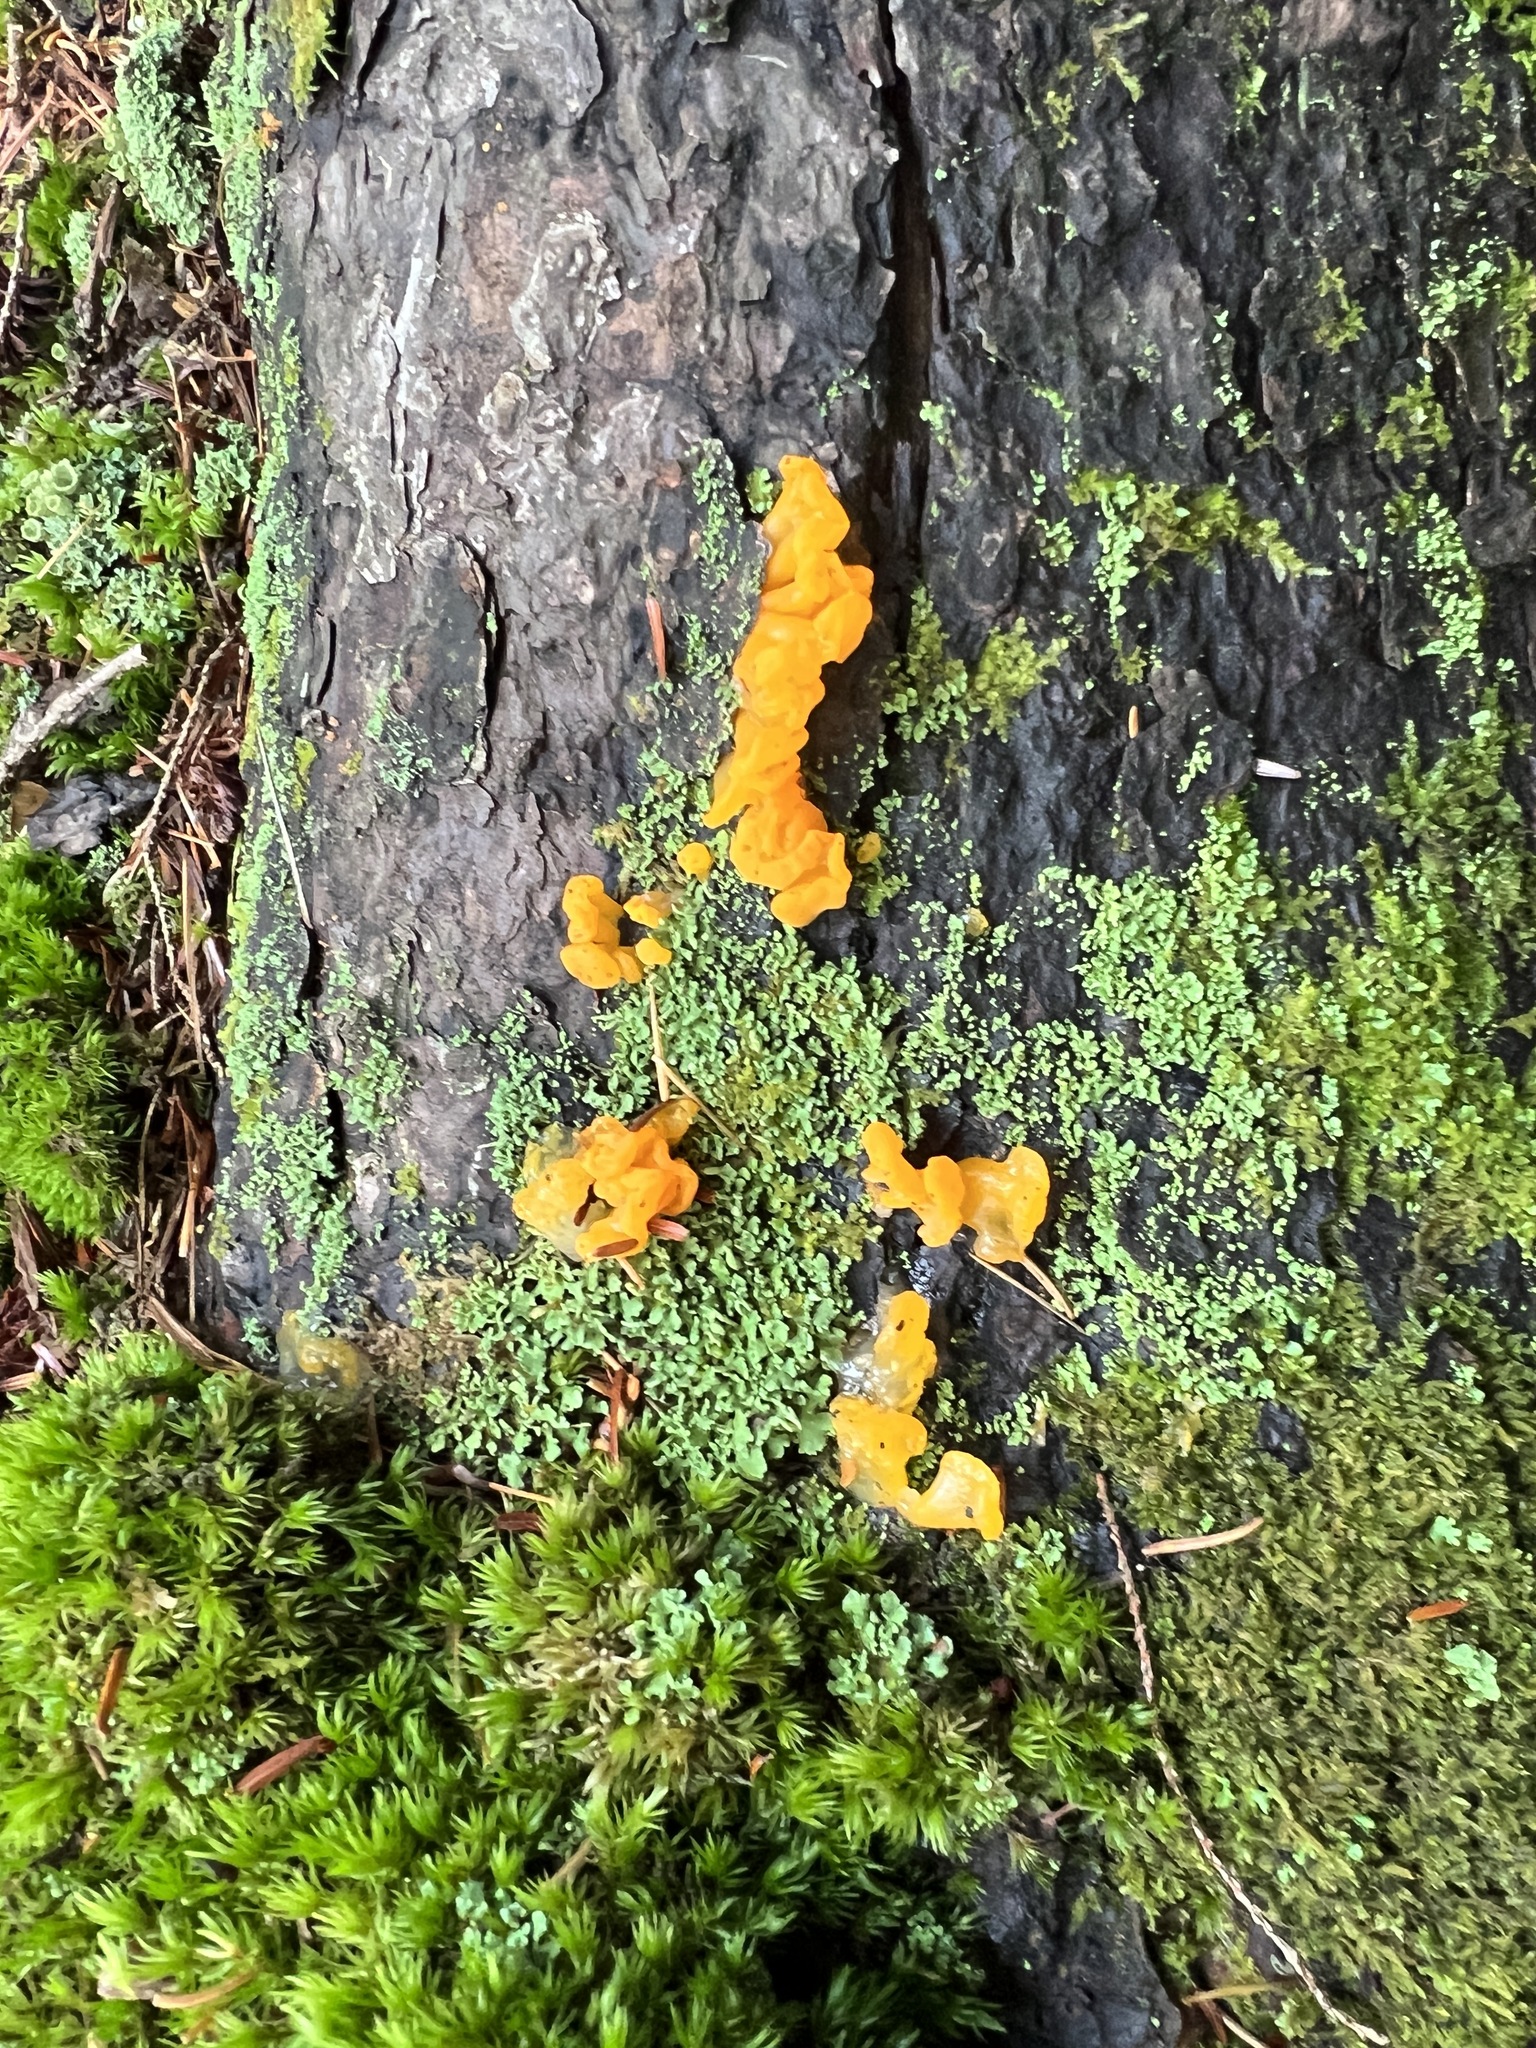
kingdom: Fungi
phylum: Basidiomycota
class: Dacrymycetes
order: Dacrymycetales
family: Dacrymycetaceae
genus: Dacrymyces
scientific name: Dacrymyces chrysospermus
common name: Orange jelly spot
